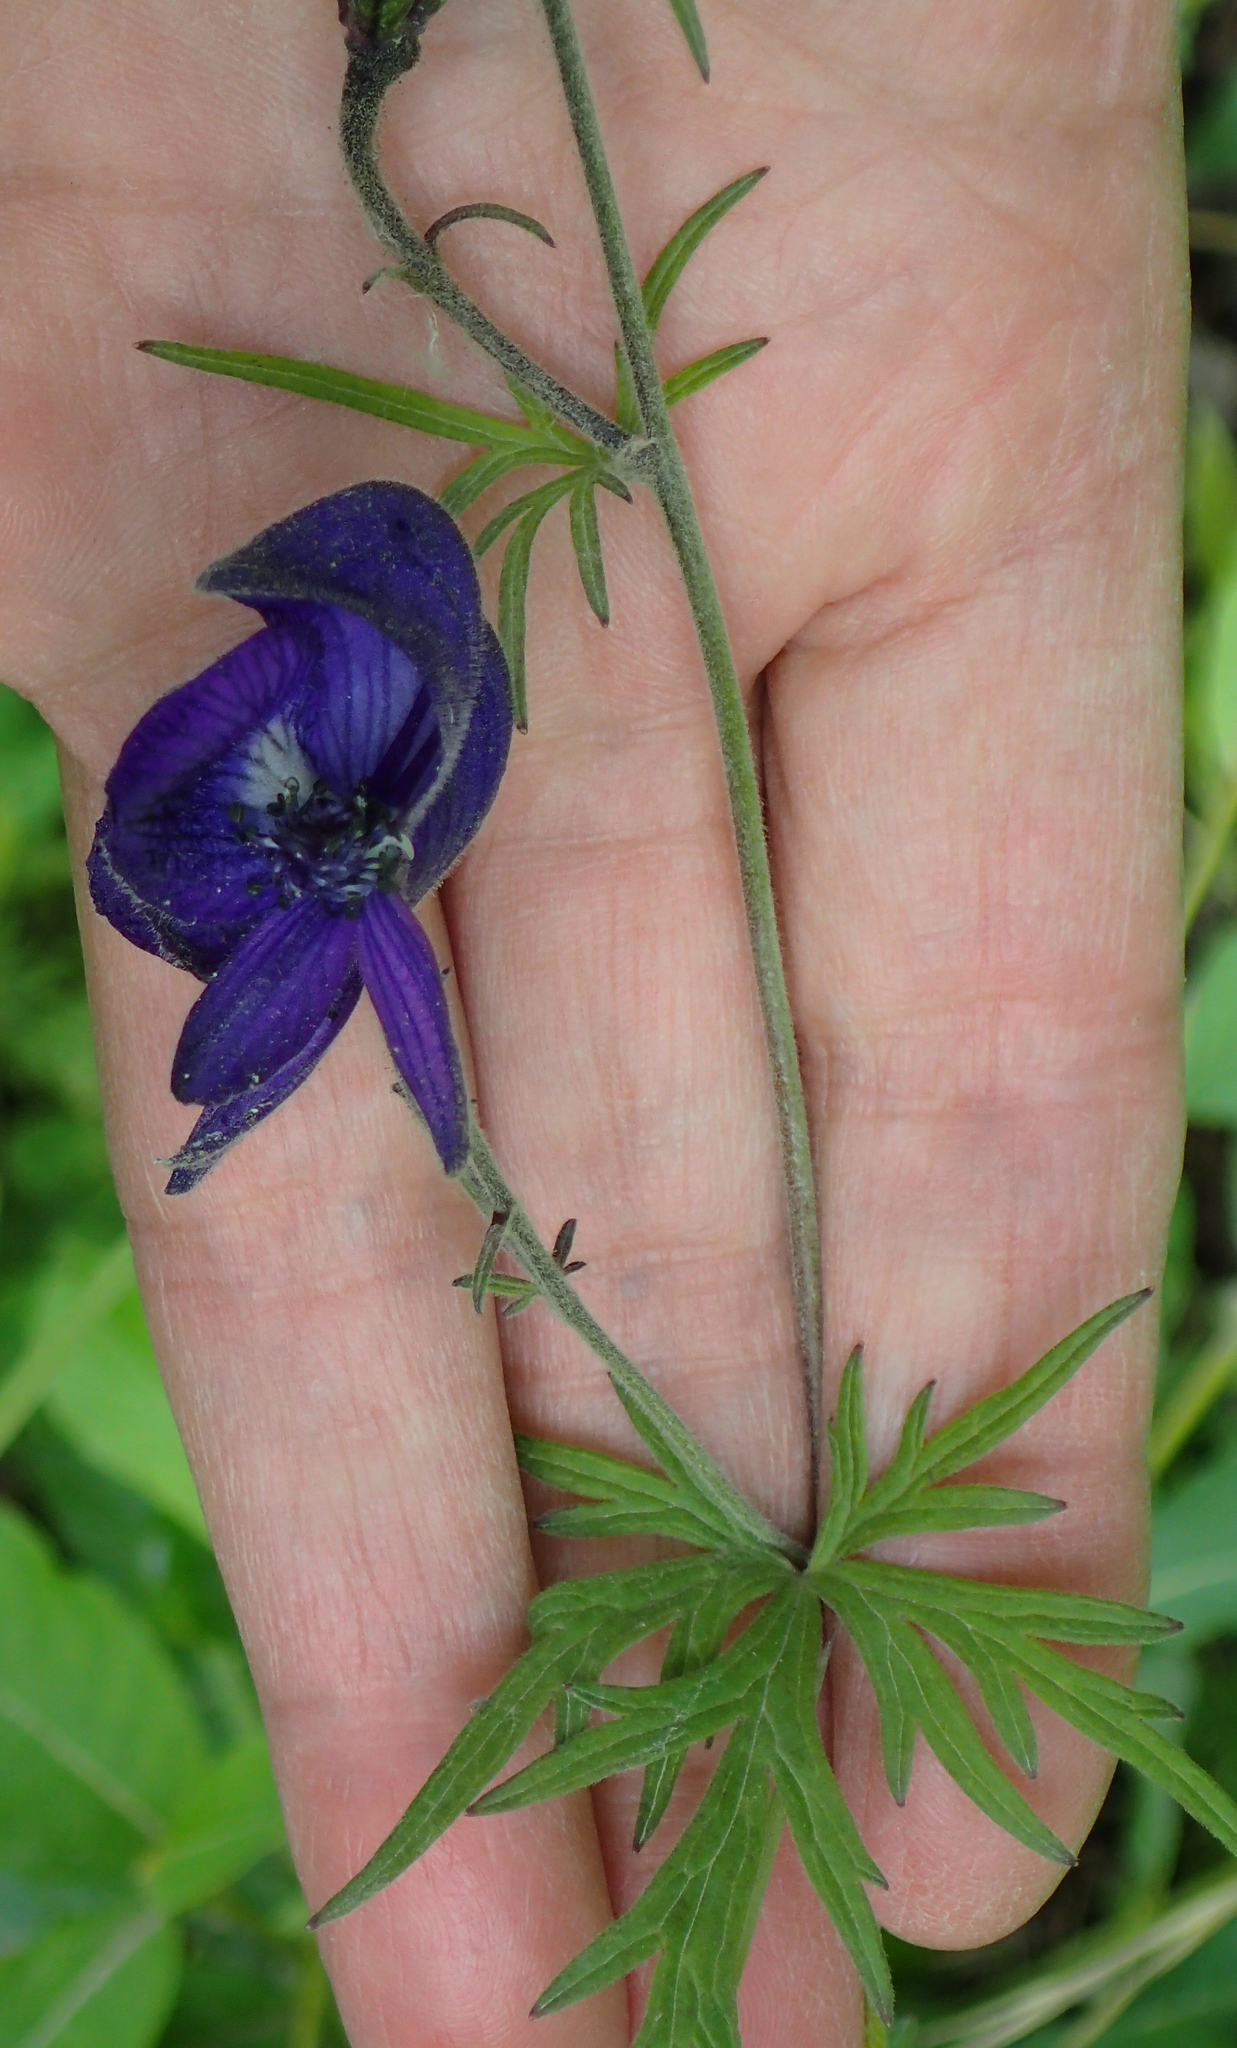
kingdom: Plantae
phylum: Tracheophyta
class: Magnoliopsida
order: Ranunculales
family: Ranunculaceae
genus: Aconitum
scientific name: Aconitum delphiniifolium
